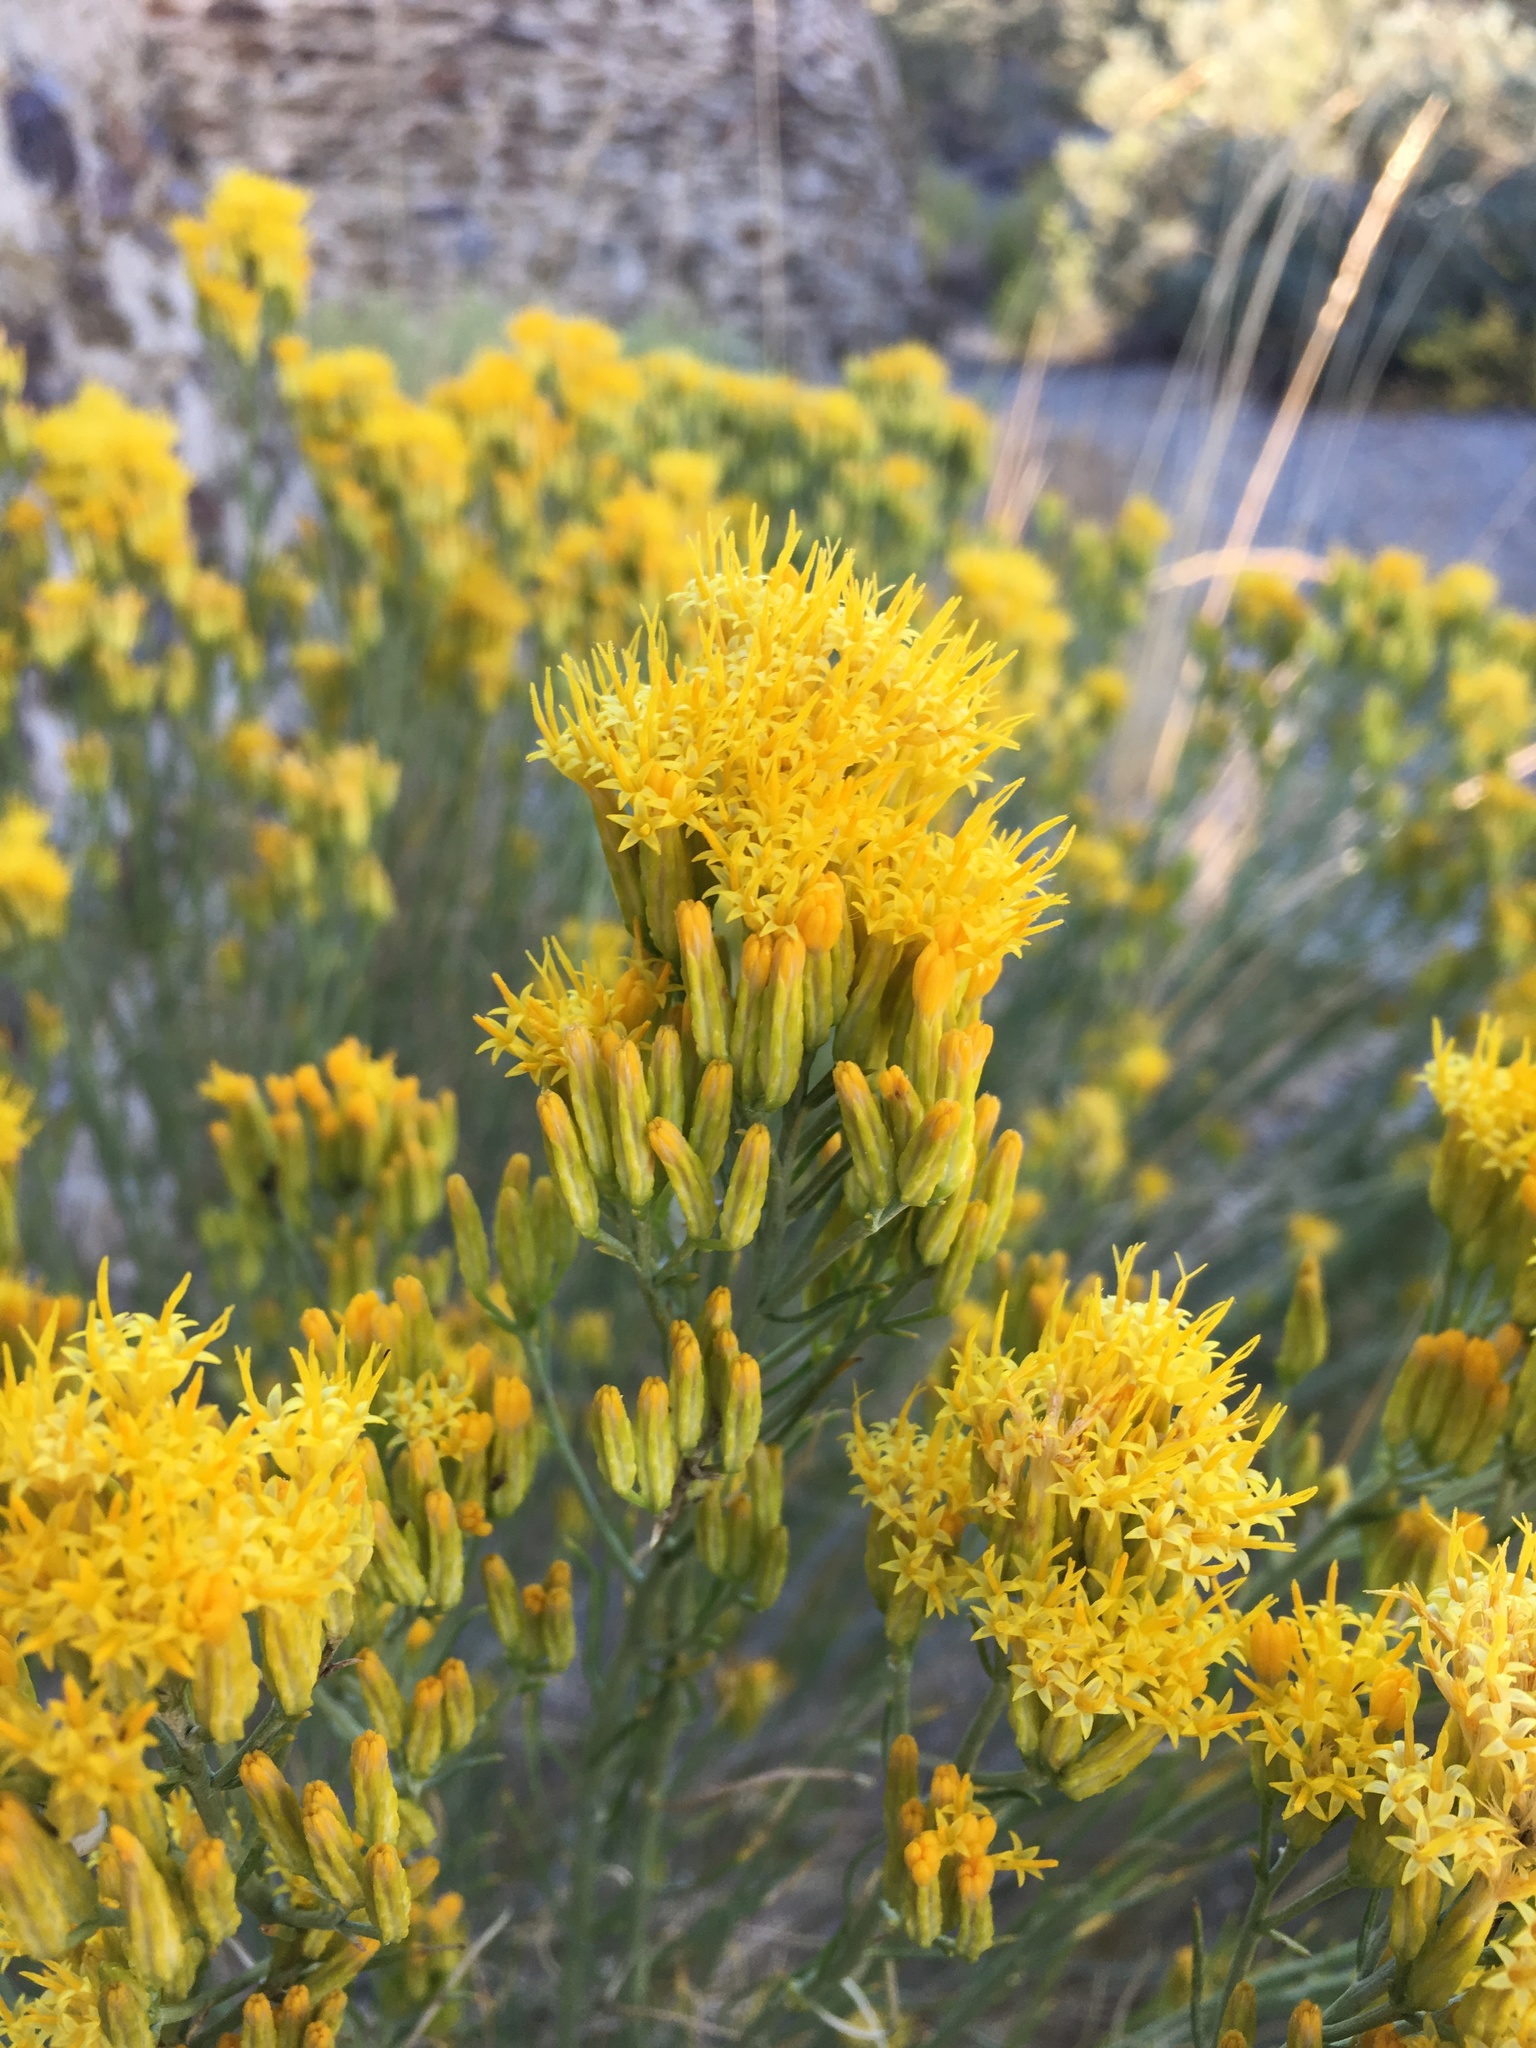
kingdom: Plantae
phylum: Tracheophyta
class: Magnoliopsida
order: Asterales
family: Asteraceae
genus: Ericameria
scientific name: Ericameria nauseosa
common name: Rubber rabbitbrush
